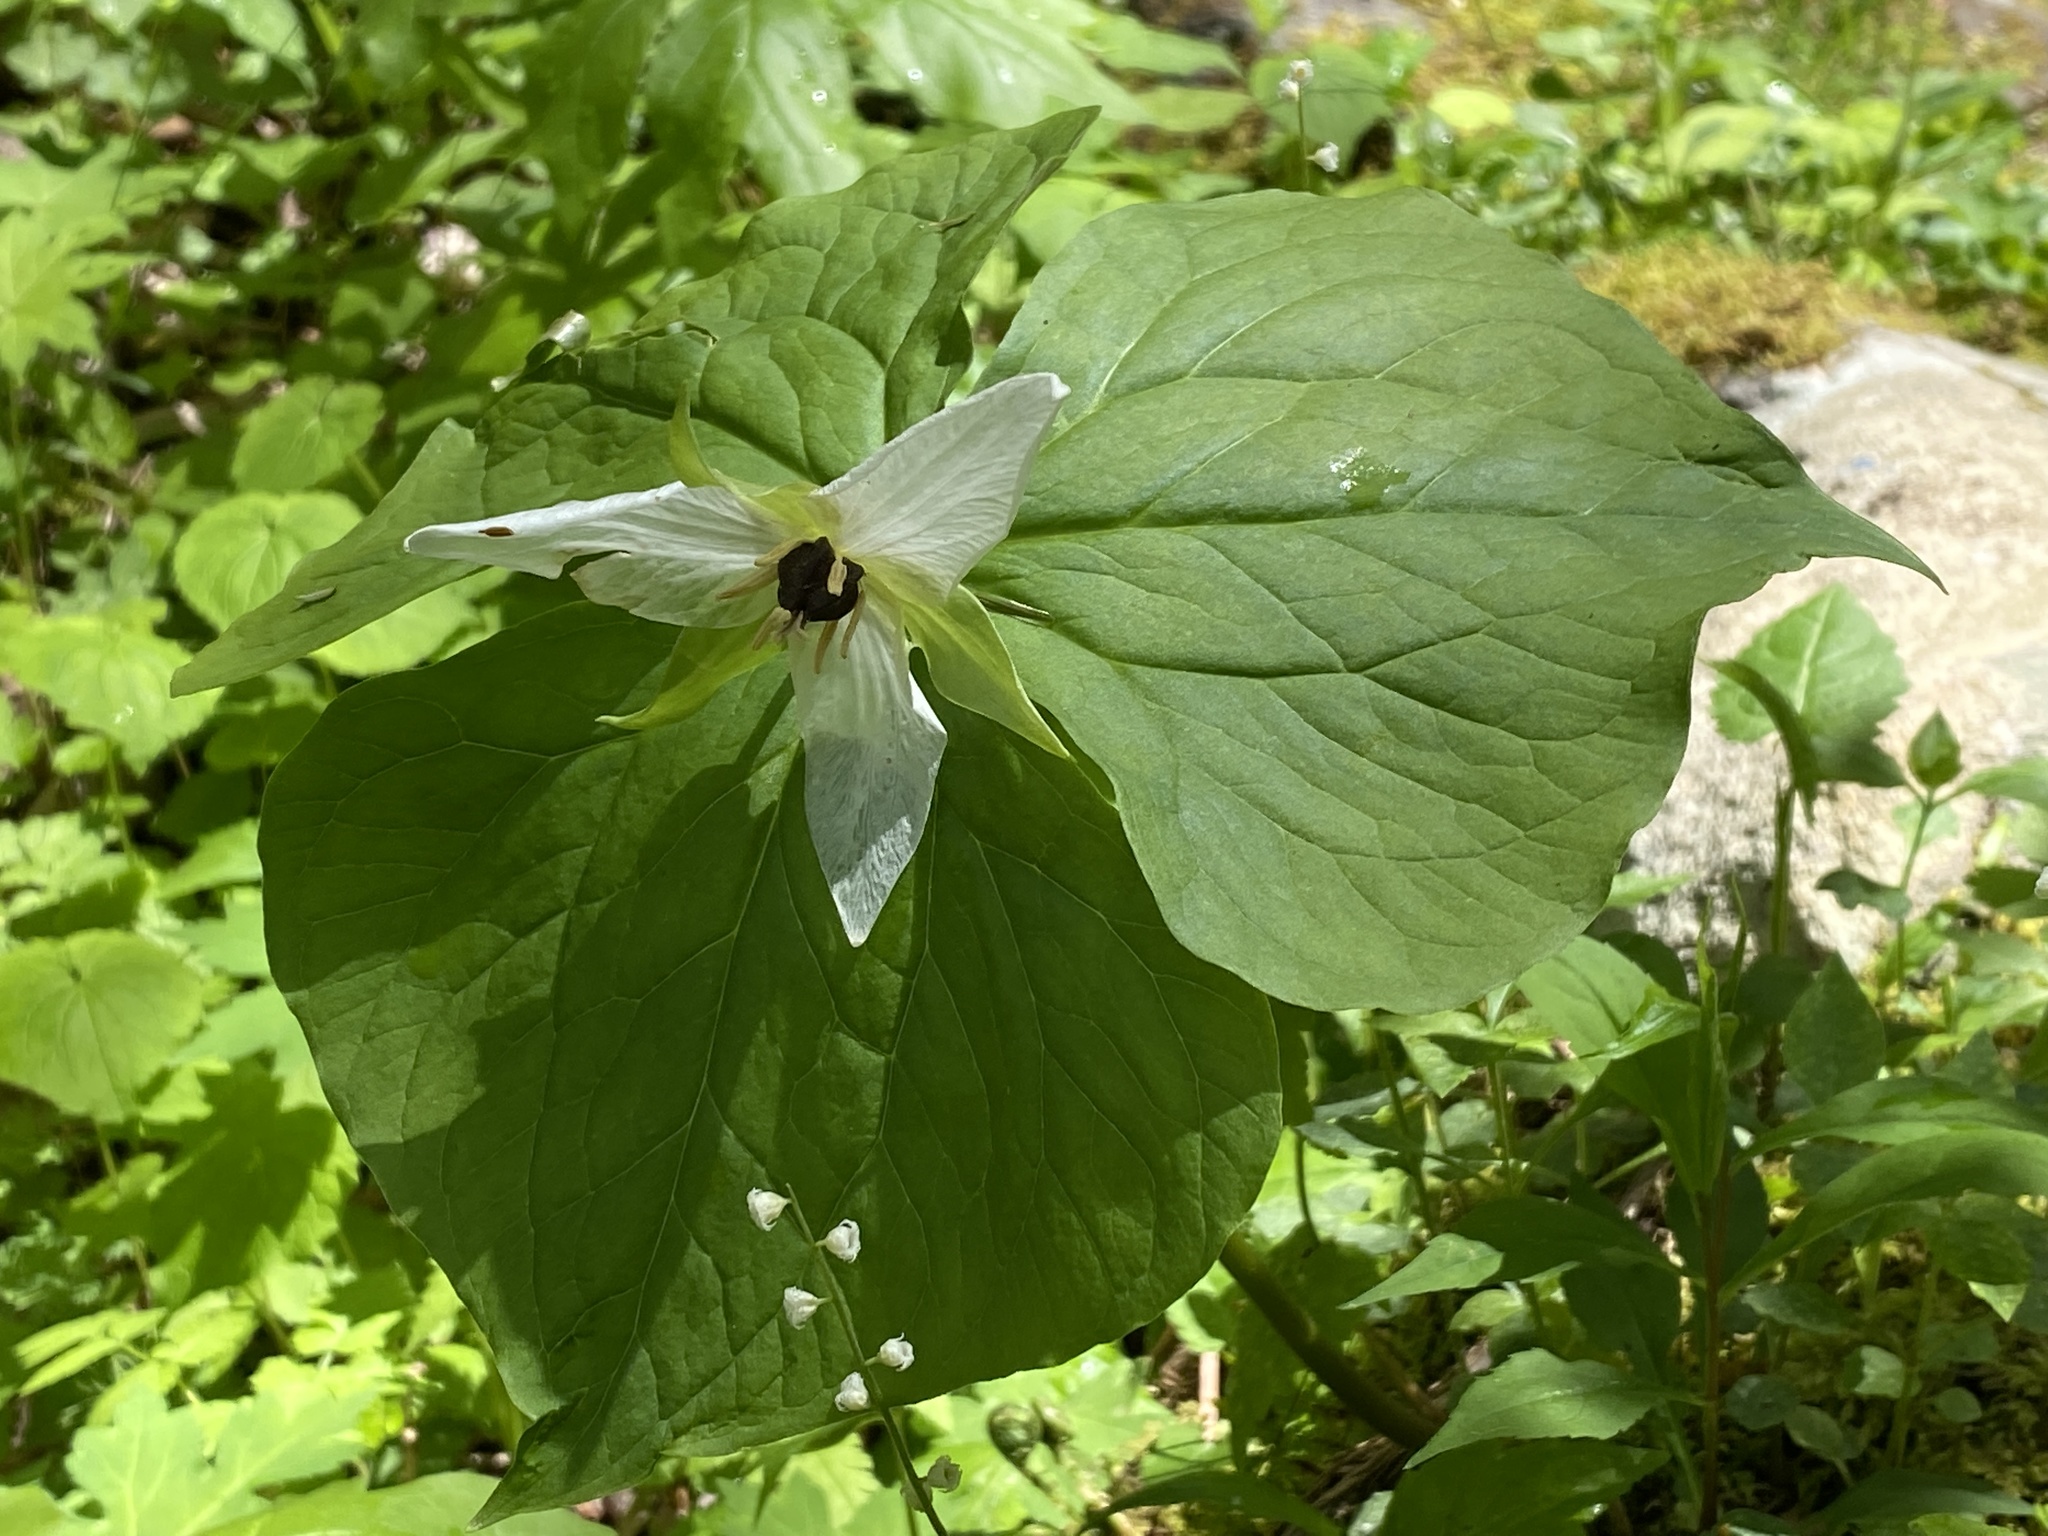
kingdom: Plantae
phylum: Tracheophyta
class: Liliopsida
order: Liliales
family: Melanthiaceae
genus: Trillium
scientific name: Trillium erectum
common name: Purple trillium
